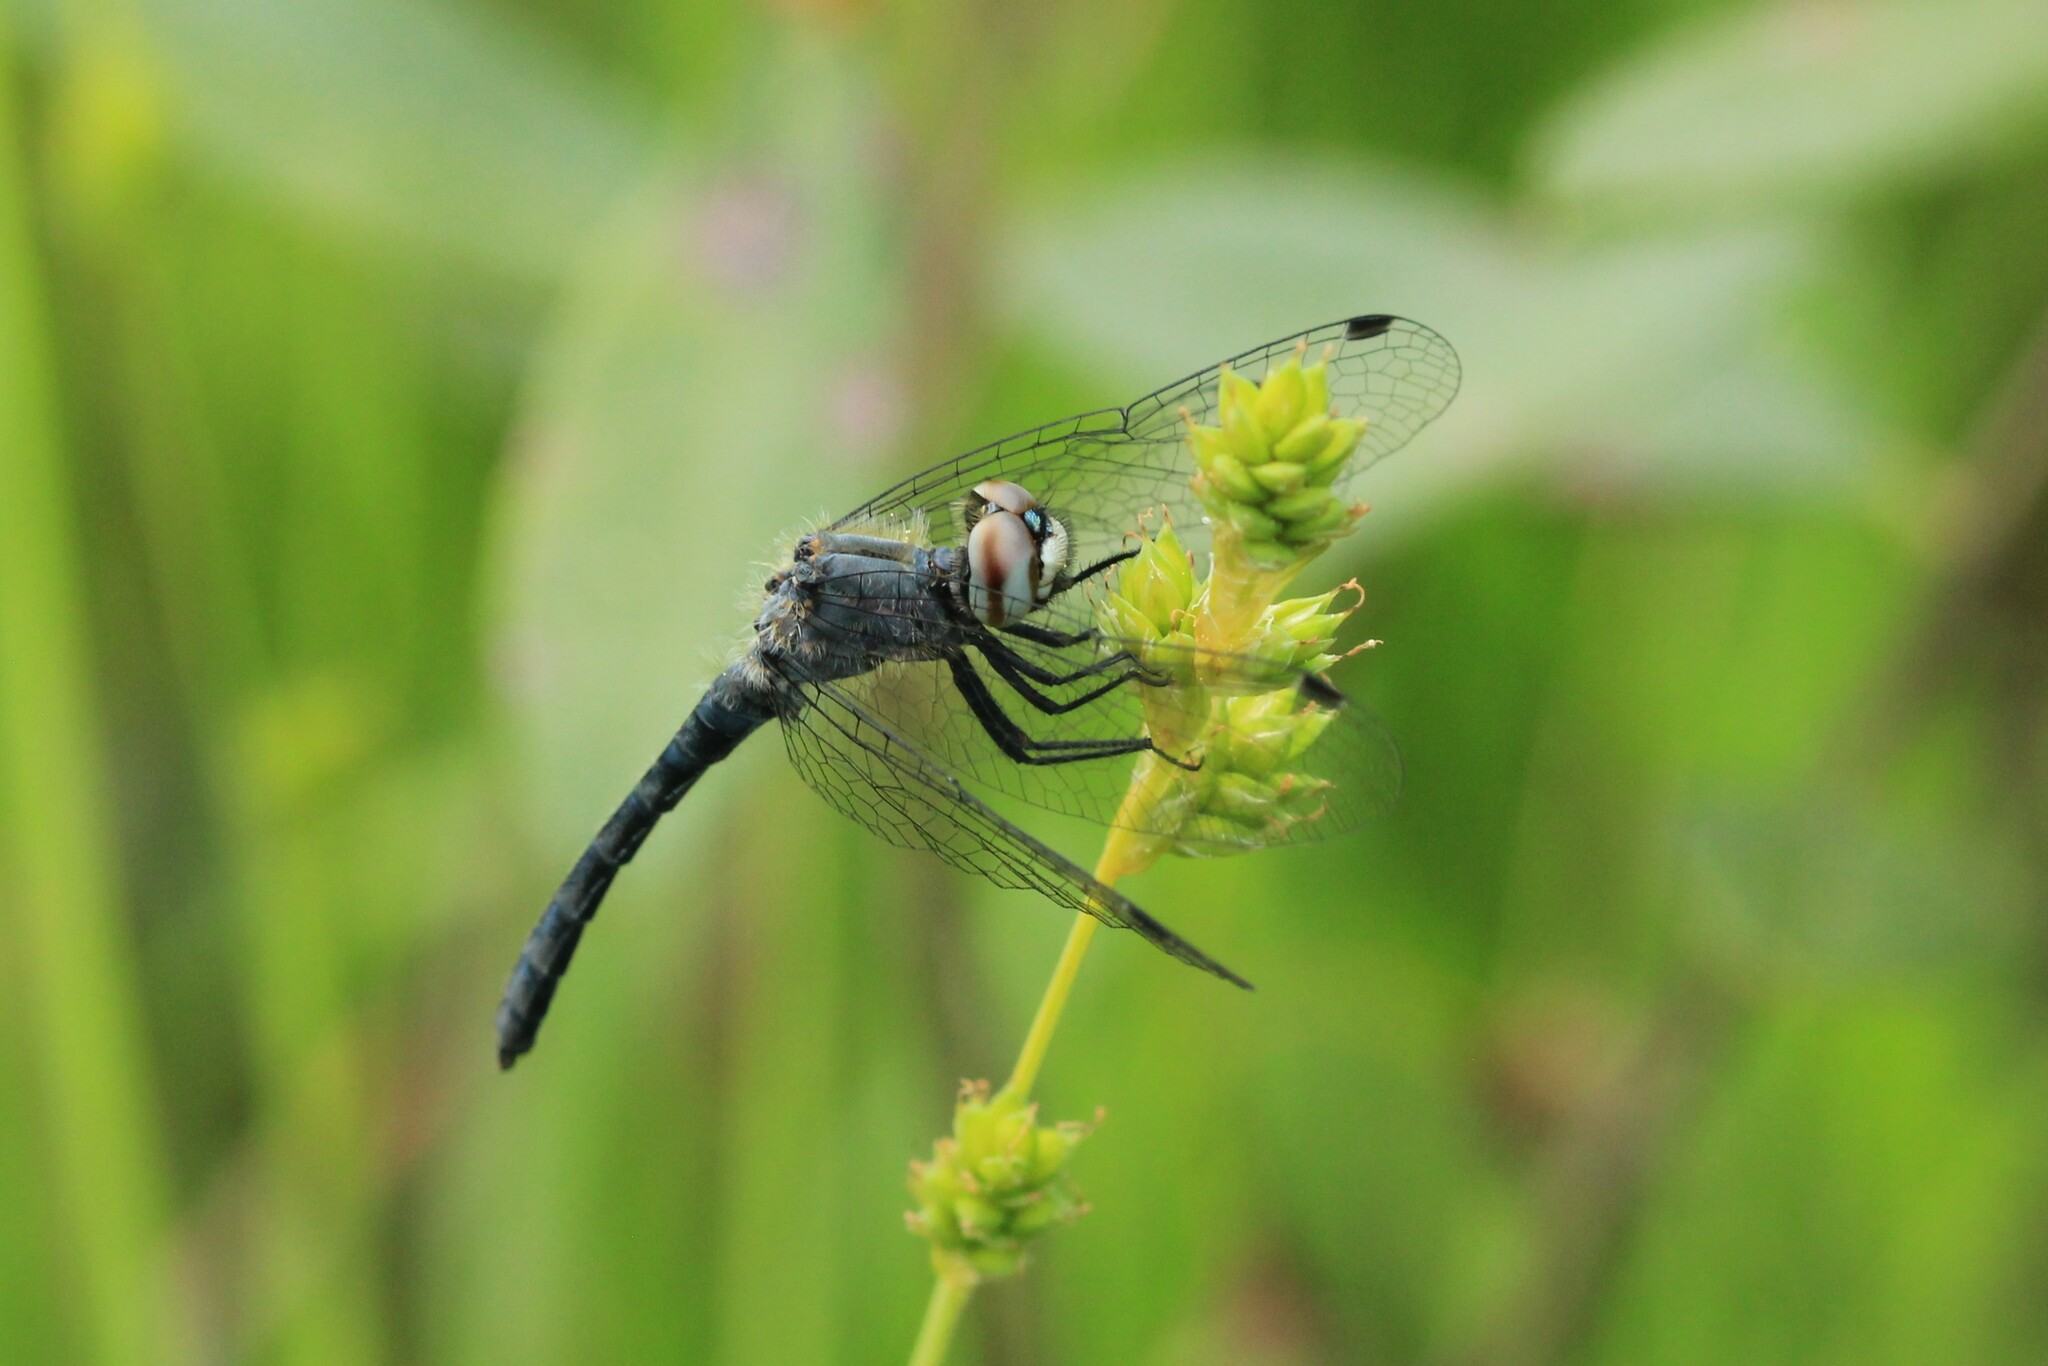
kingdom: Animalia
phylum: Arthropoda
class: Insecta
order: Odonata
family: Libellulidae
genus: Nannothemis
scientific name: Nannothemis bella
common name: Elfin skimmer
